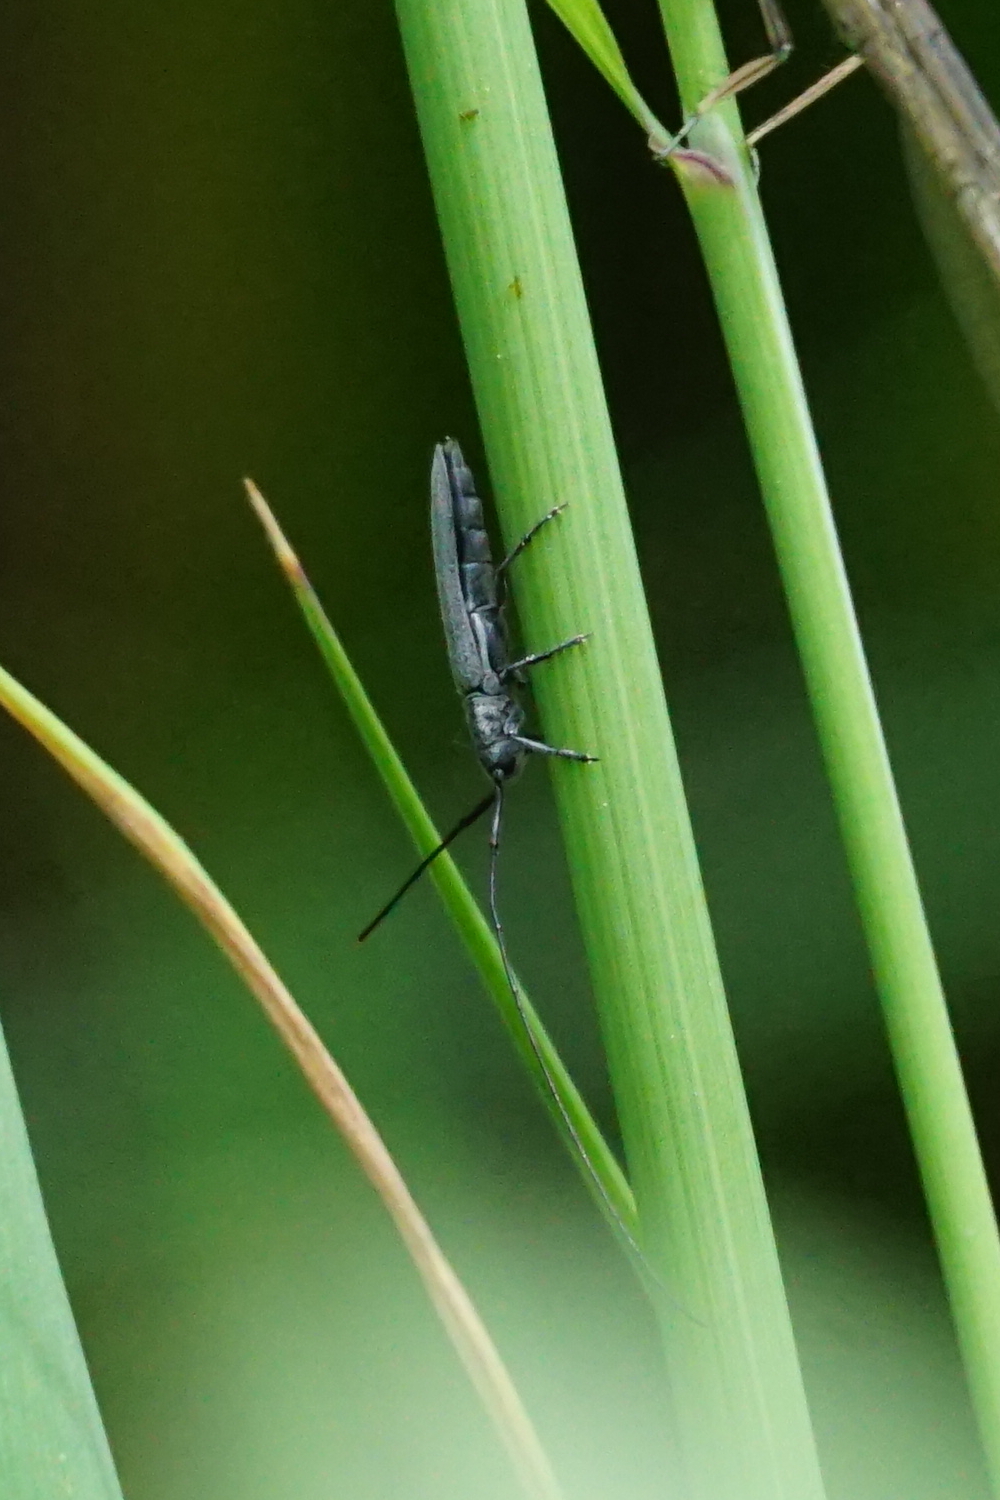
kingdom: Animalia
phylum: Arthropoda
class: Insecta
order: Coleoptera
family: Cerambycidae
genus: Calamobius
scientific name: Calamobius filum
